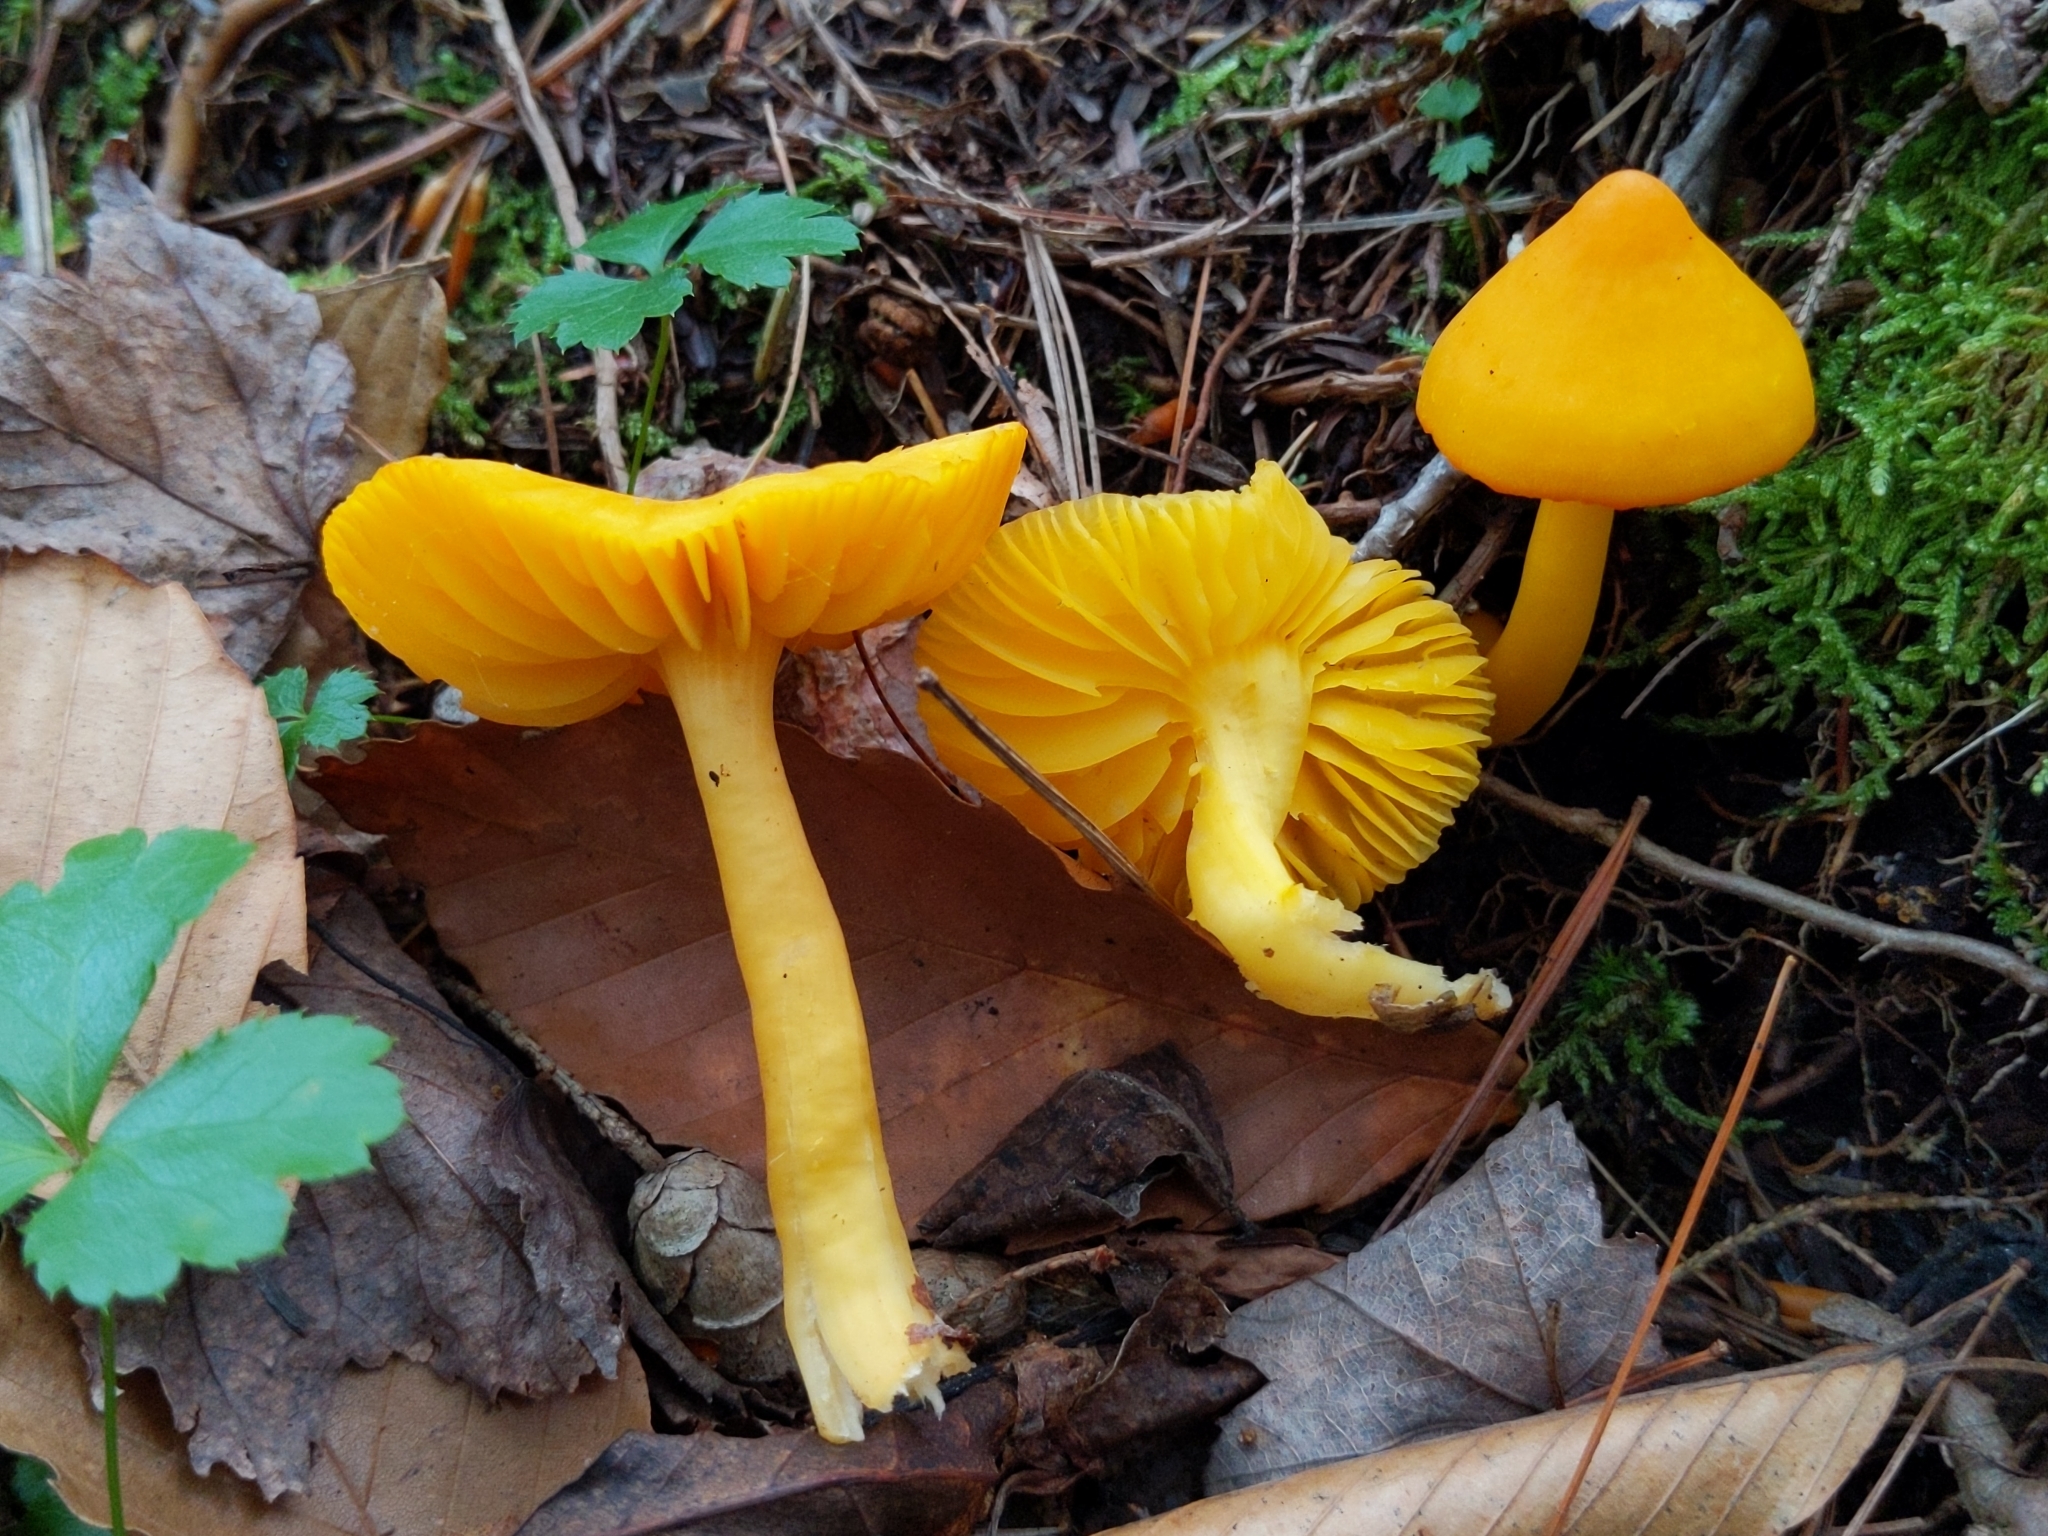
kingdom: Fungi
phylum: Basidiomycota
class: Agaricomycetes
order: Agaricales
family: Hygrophoraceae
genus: Humidicutis
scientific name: Humidicutis marginata
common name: Orange gilled waxcap
